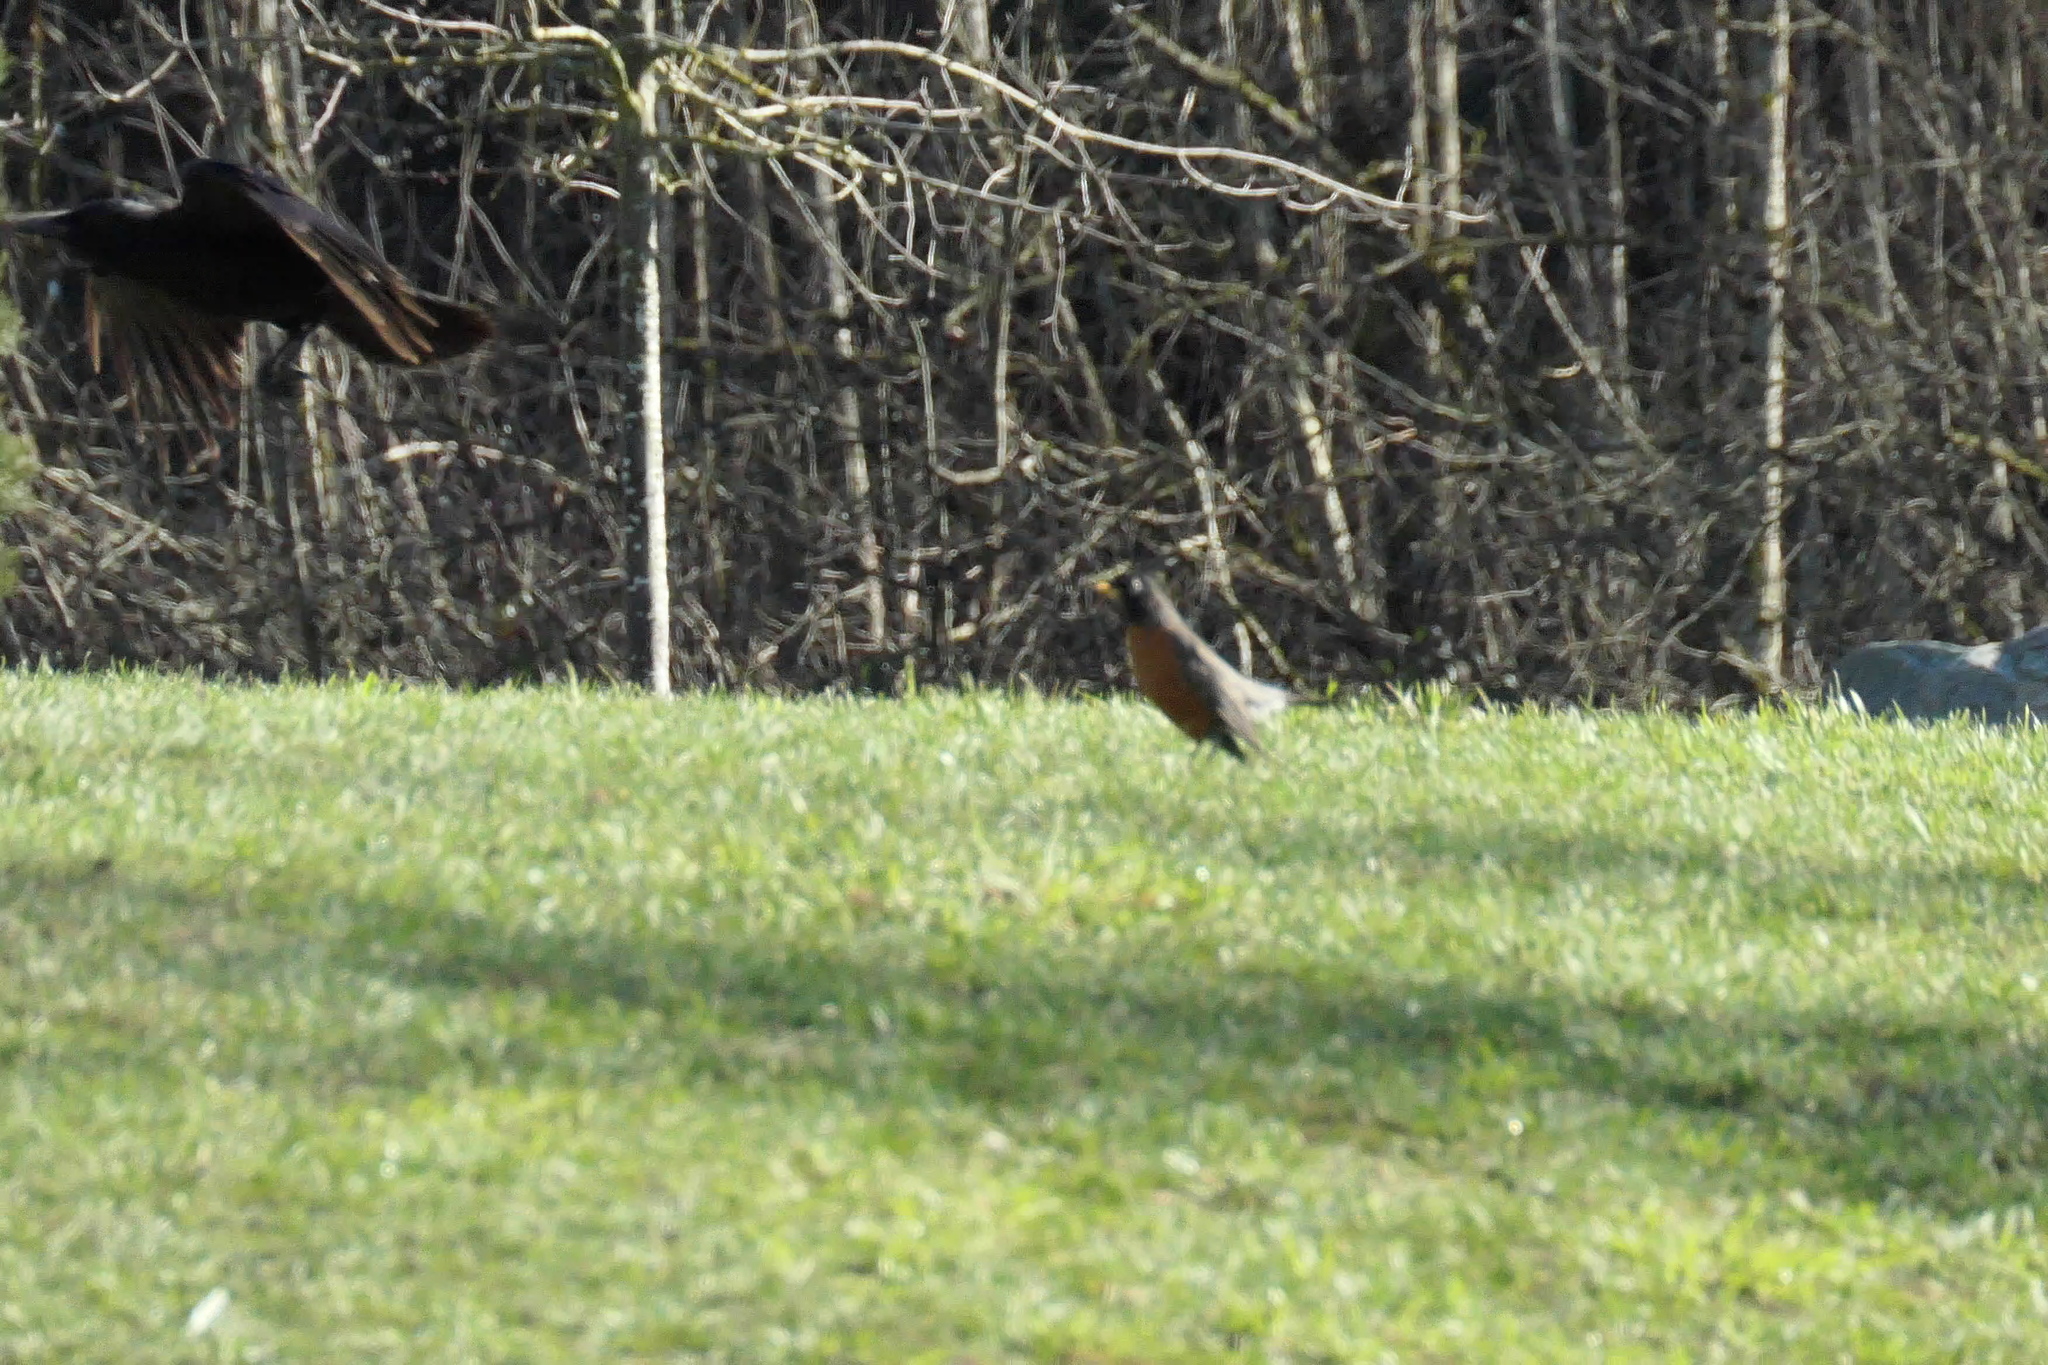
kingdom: Animalia
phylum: Chordata
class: Aves
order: Passeriformes
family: Corvidae
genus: Corvus
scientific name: Corvus brachyrhynchos
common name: American crow
